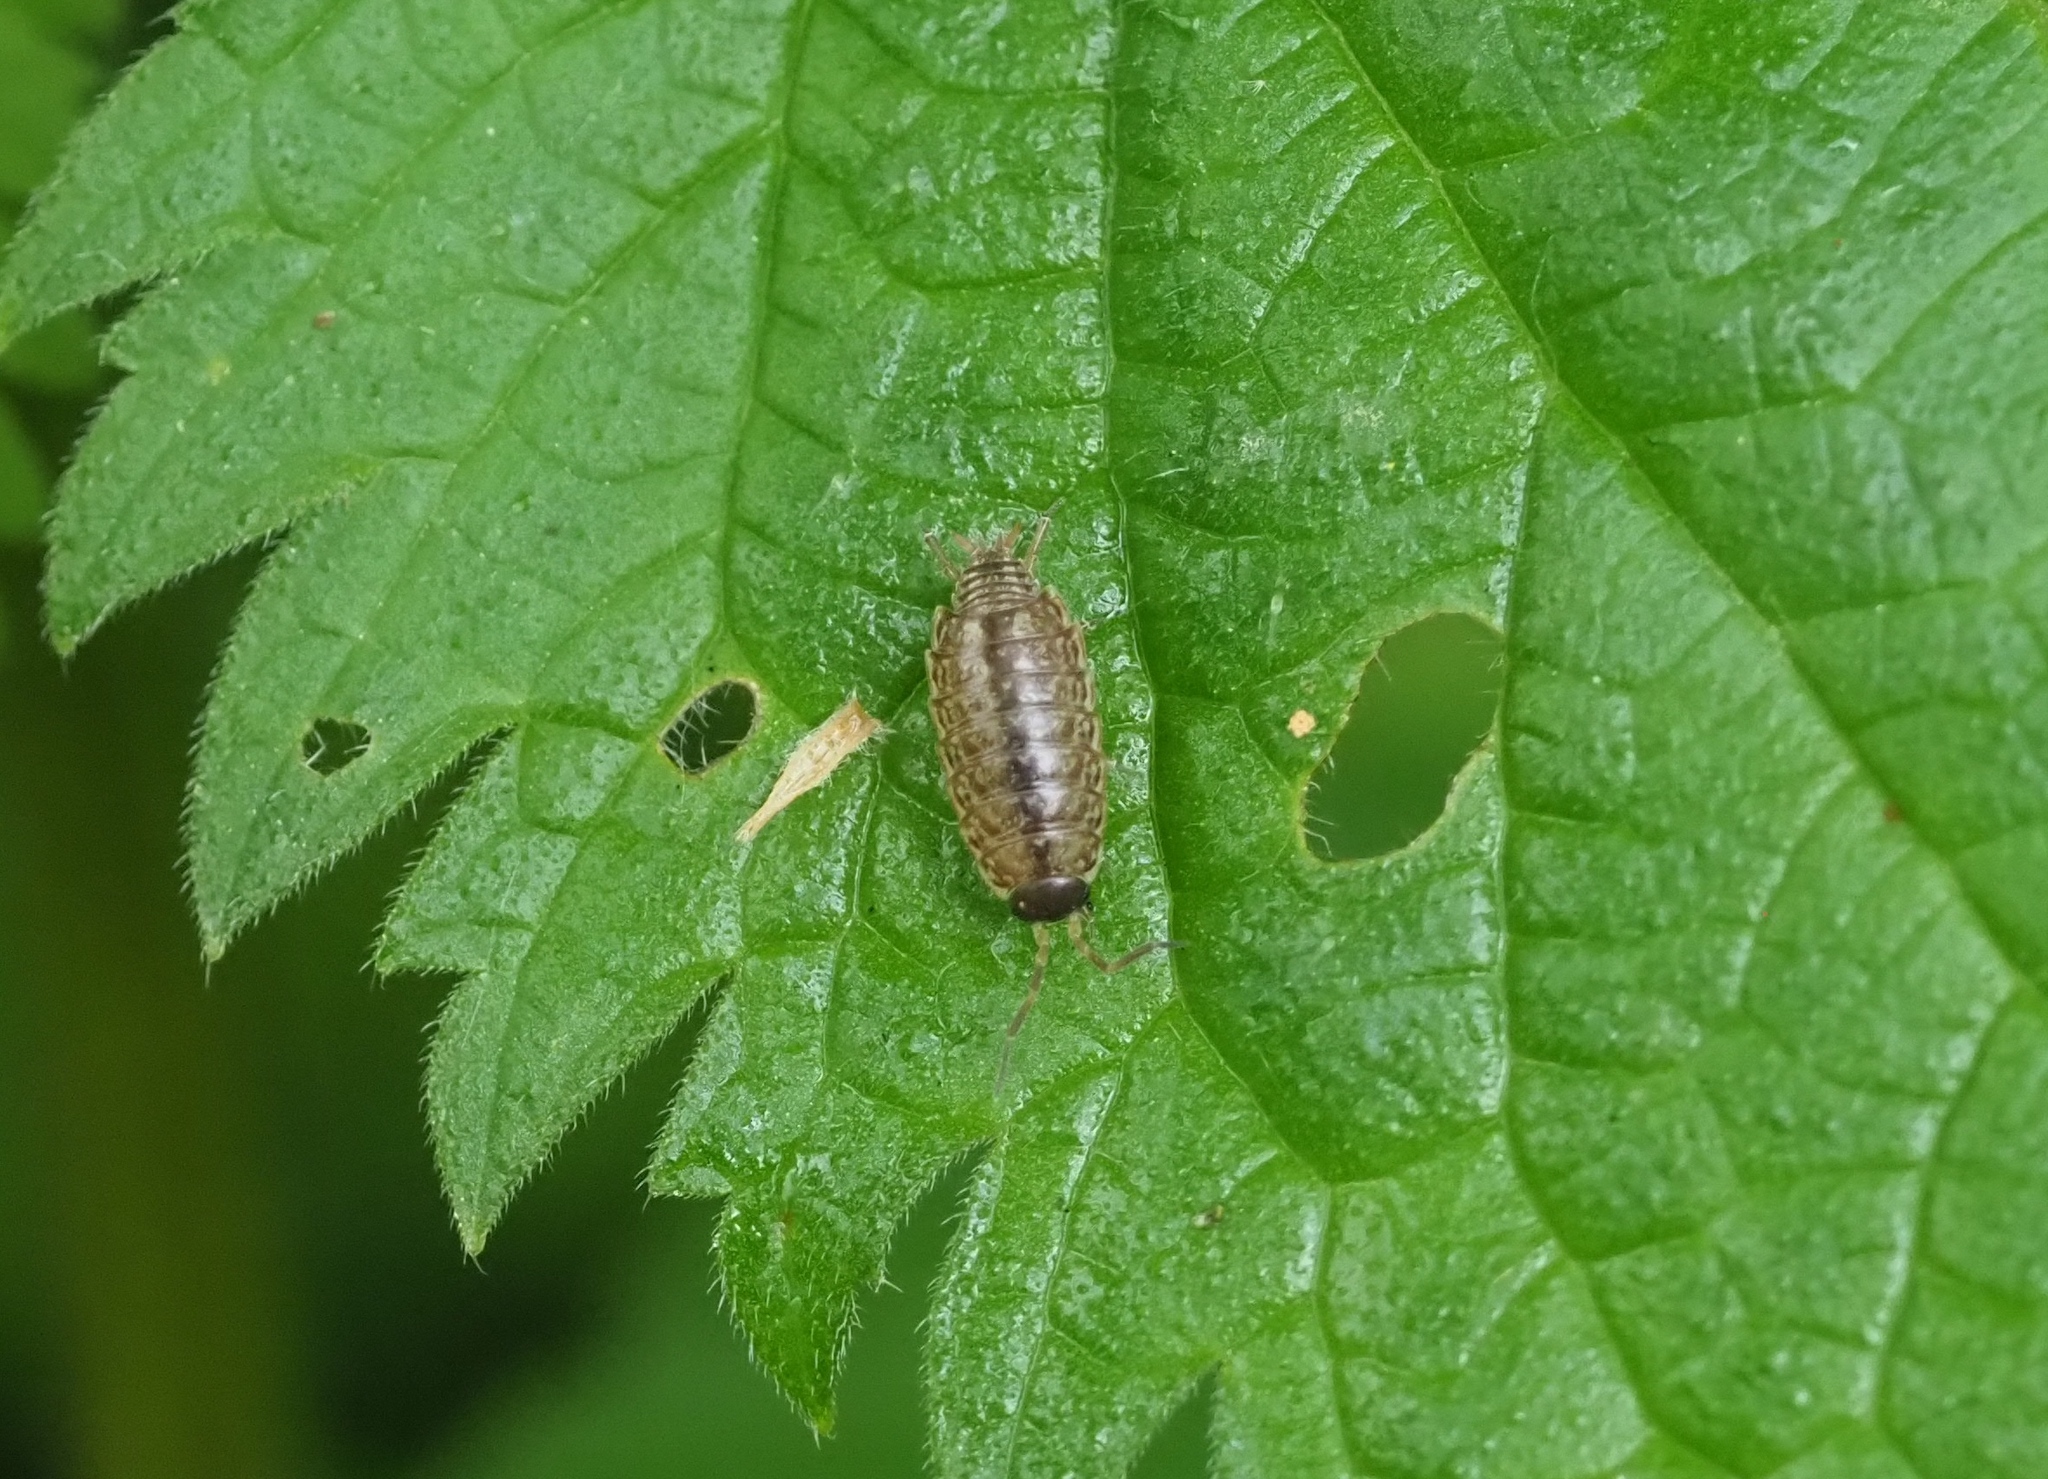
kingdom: Animalia
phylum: Arthropoda
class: Malacostraca
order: Isopoda
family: Philosciidae
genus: Philoscia
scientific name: Philoscia muscorum
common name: Common striped woodlouse
